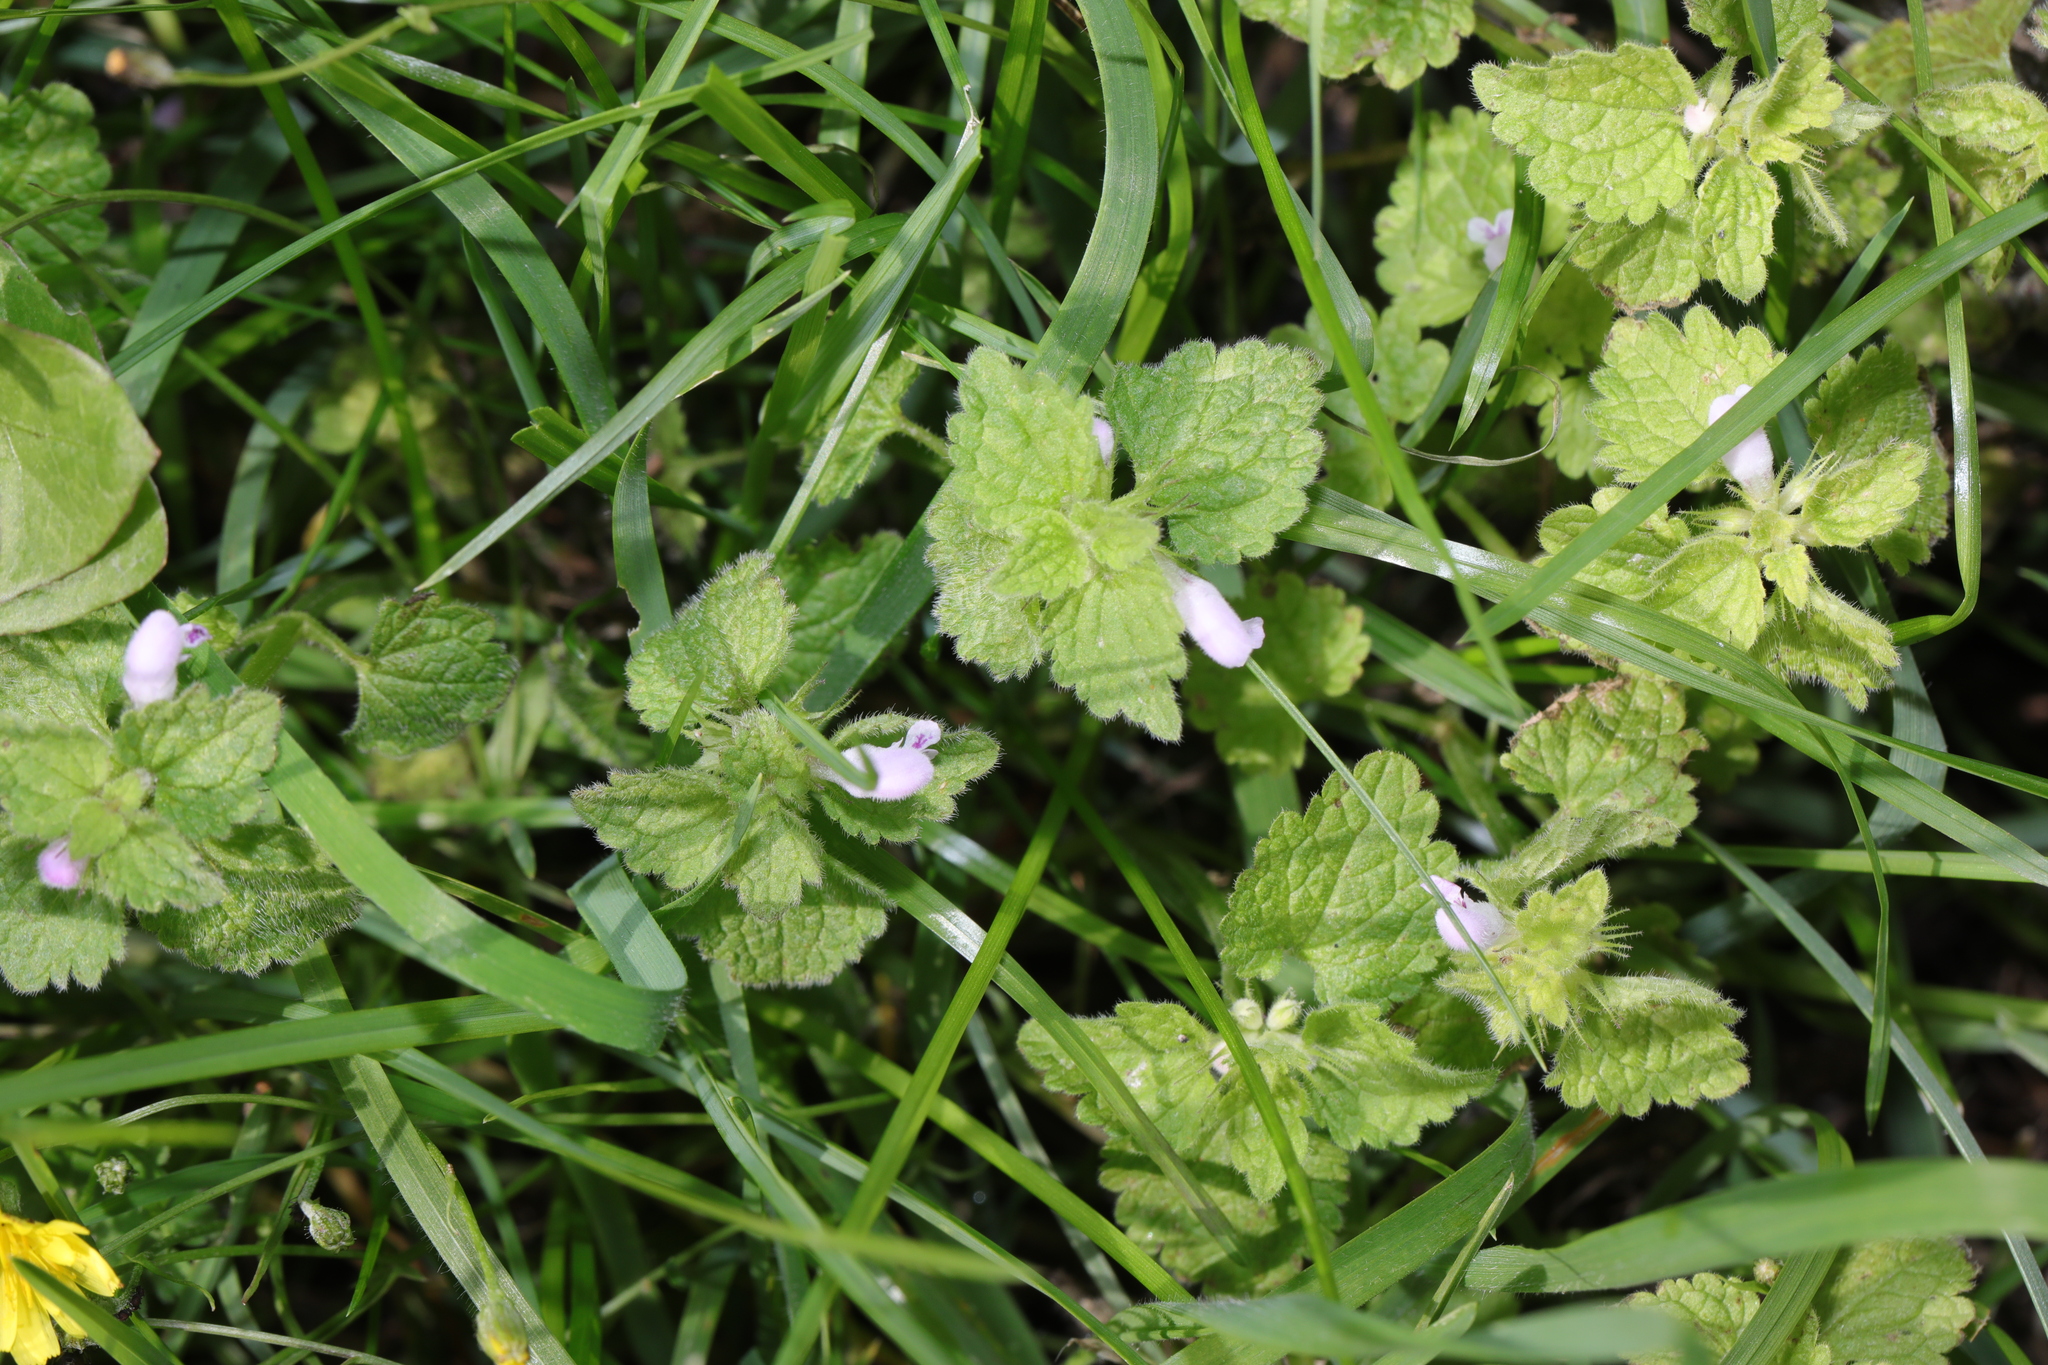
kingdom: Plantae
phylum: Tracheophyta
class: Magnoliopsida
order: Lamiales
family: Lamiaceae
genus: Lamium
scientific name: Lamium purpureum
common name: Red dead-nettle
